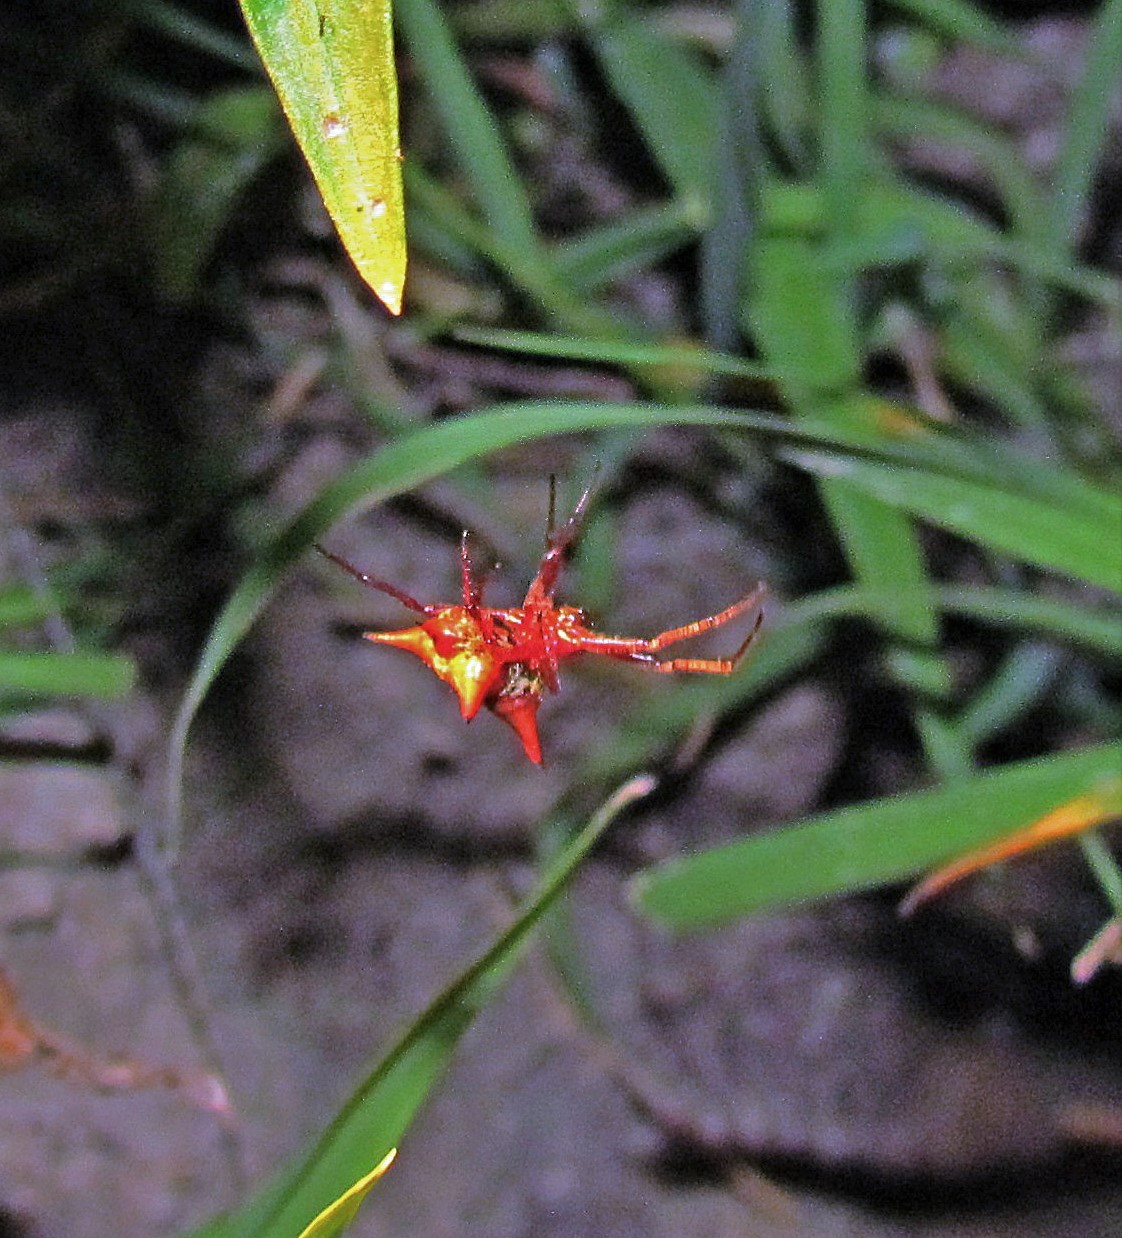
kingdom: Animalia
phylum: Arthropoda
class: Arachnida
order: Araneae
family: Araneidae
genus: Actinosoma
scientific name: Actinosoma pentacanthum
